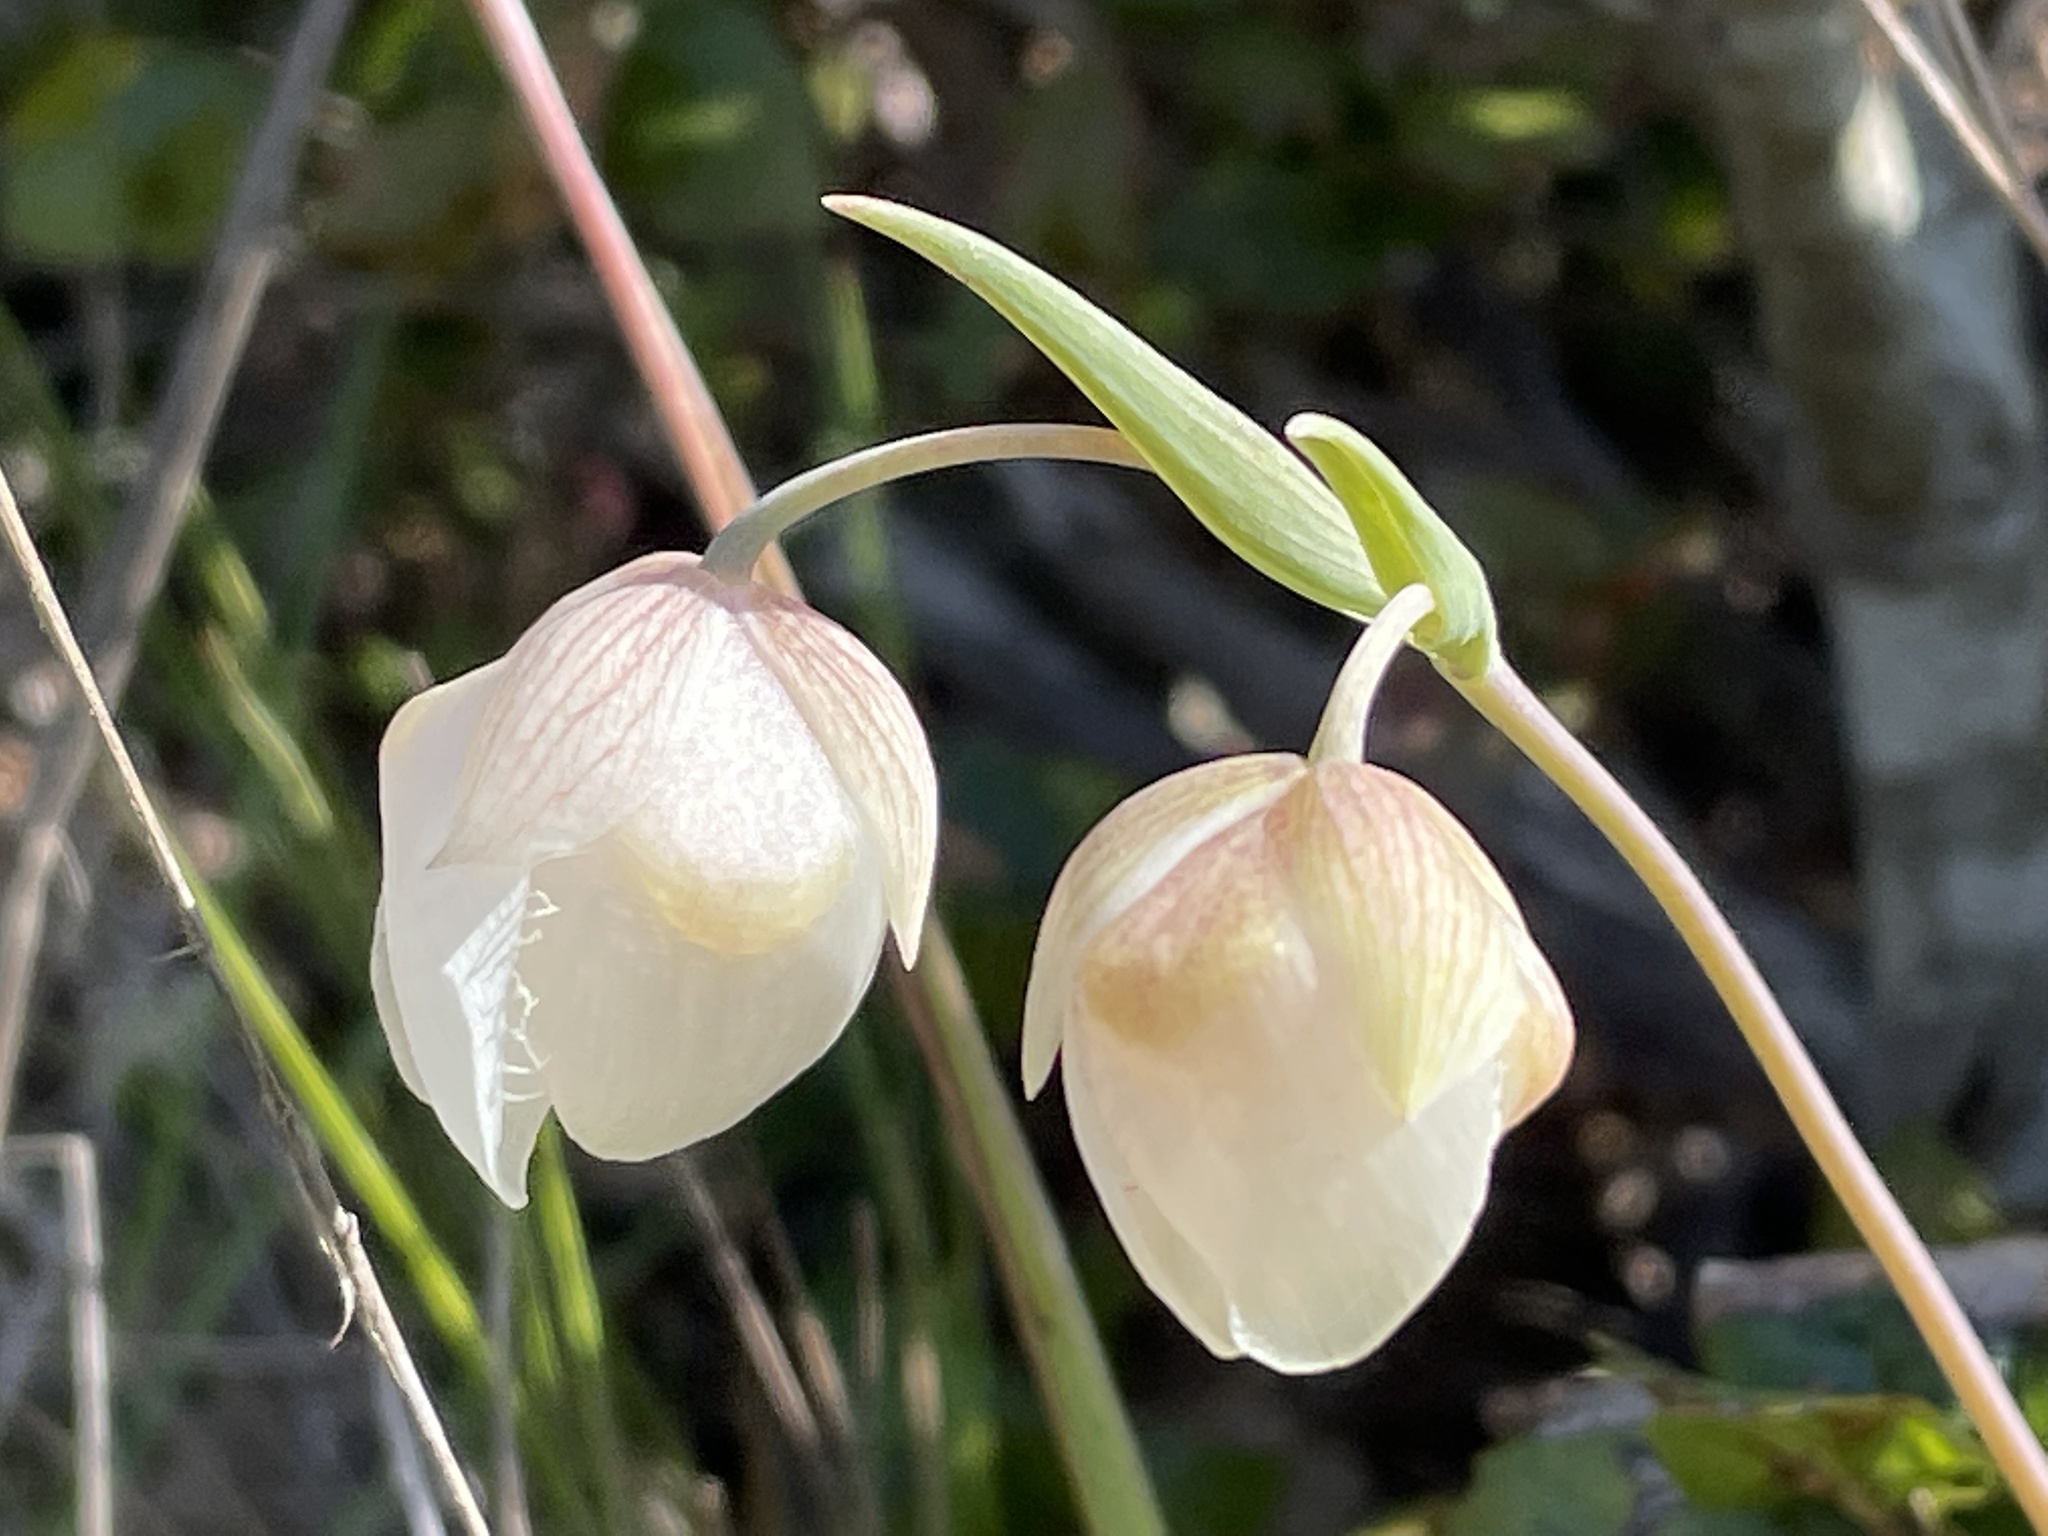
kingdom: Plantae
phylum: Tracheophyta
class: Liliopsida
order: Liliales
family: Liliaceae
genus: Calochortus
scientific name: Calochortus albus
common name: Fairy-lantern
